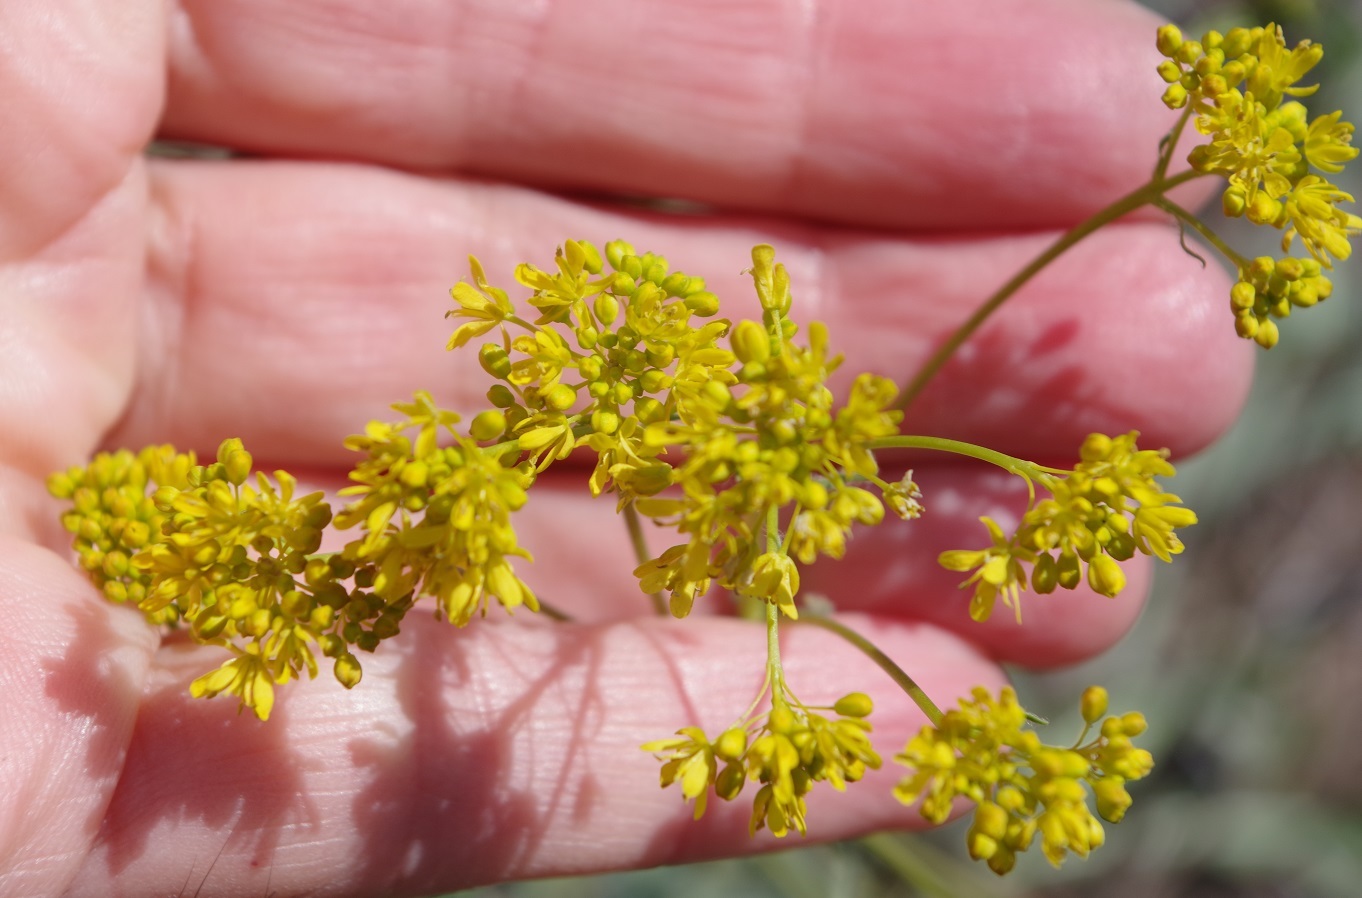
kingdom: Plantae
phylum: Tracheophyta
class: Magnoliopsida
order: Brassicales
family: Brassicaceae
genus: Isatis
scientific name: Isatis tinctoria
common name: Woad
